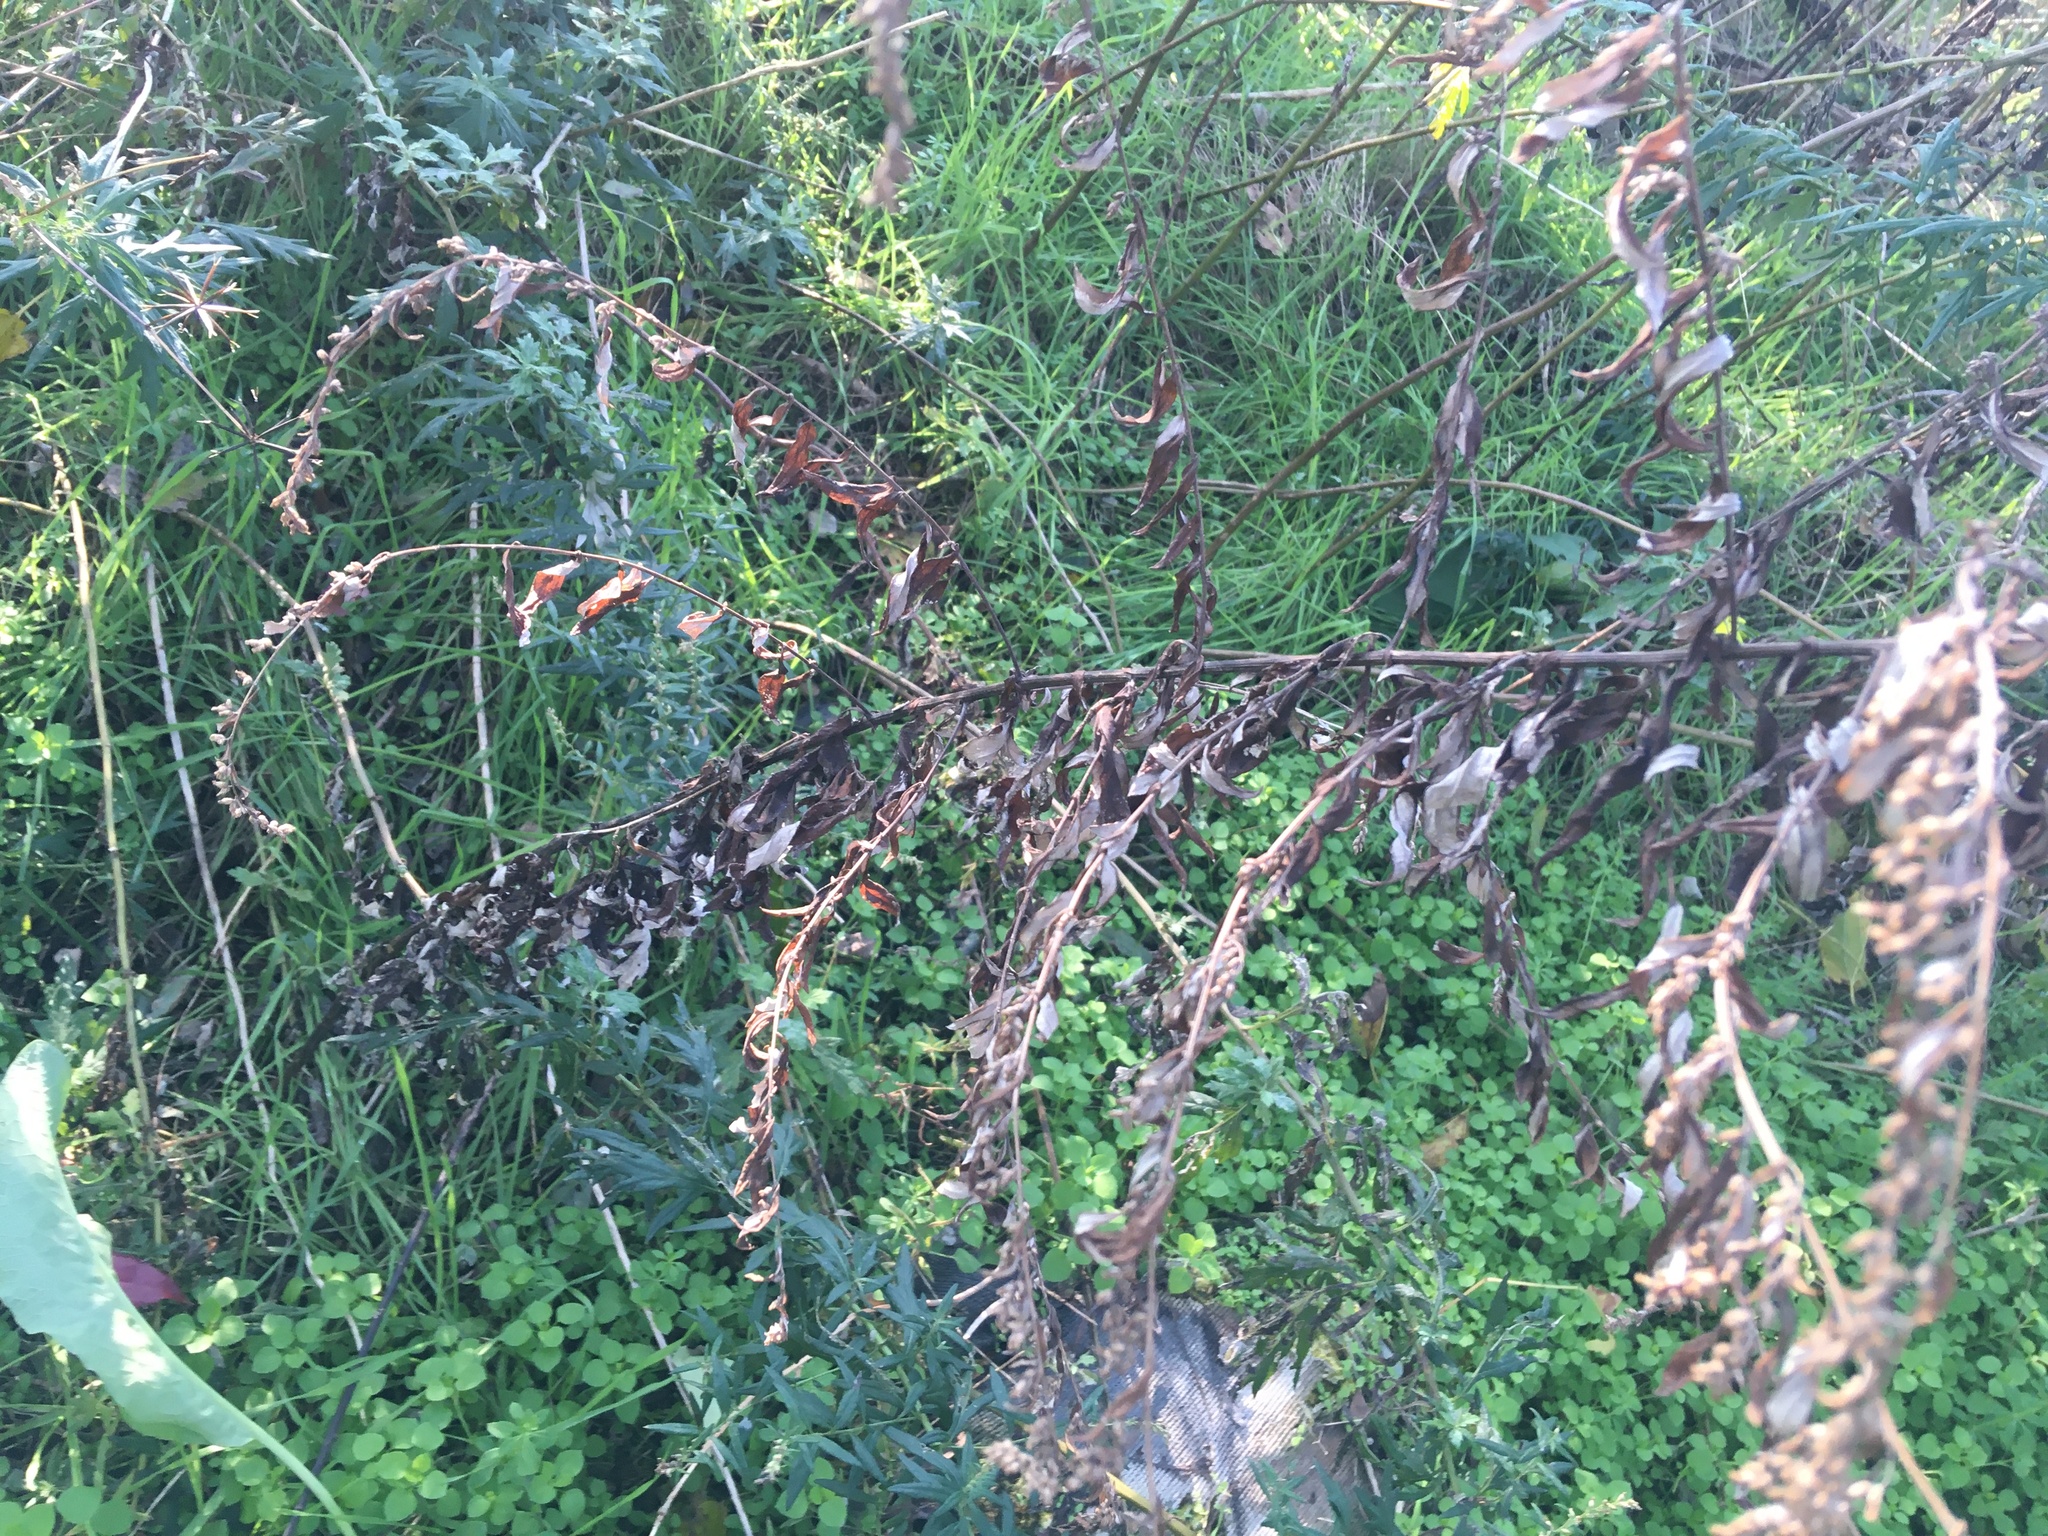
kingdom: Plantae
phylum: Tracheophyta
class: Magnoliopsida
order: Asterales
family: Asteraceae
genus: Artemisia
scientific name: Artemisia vulgaris
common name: Mugwort
